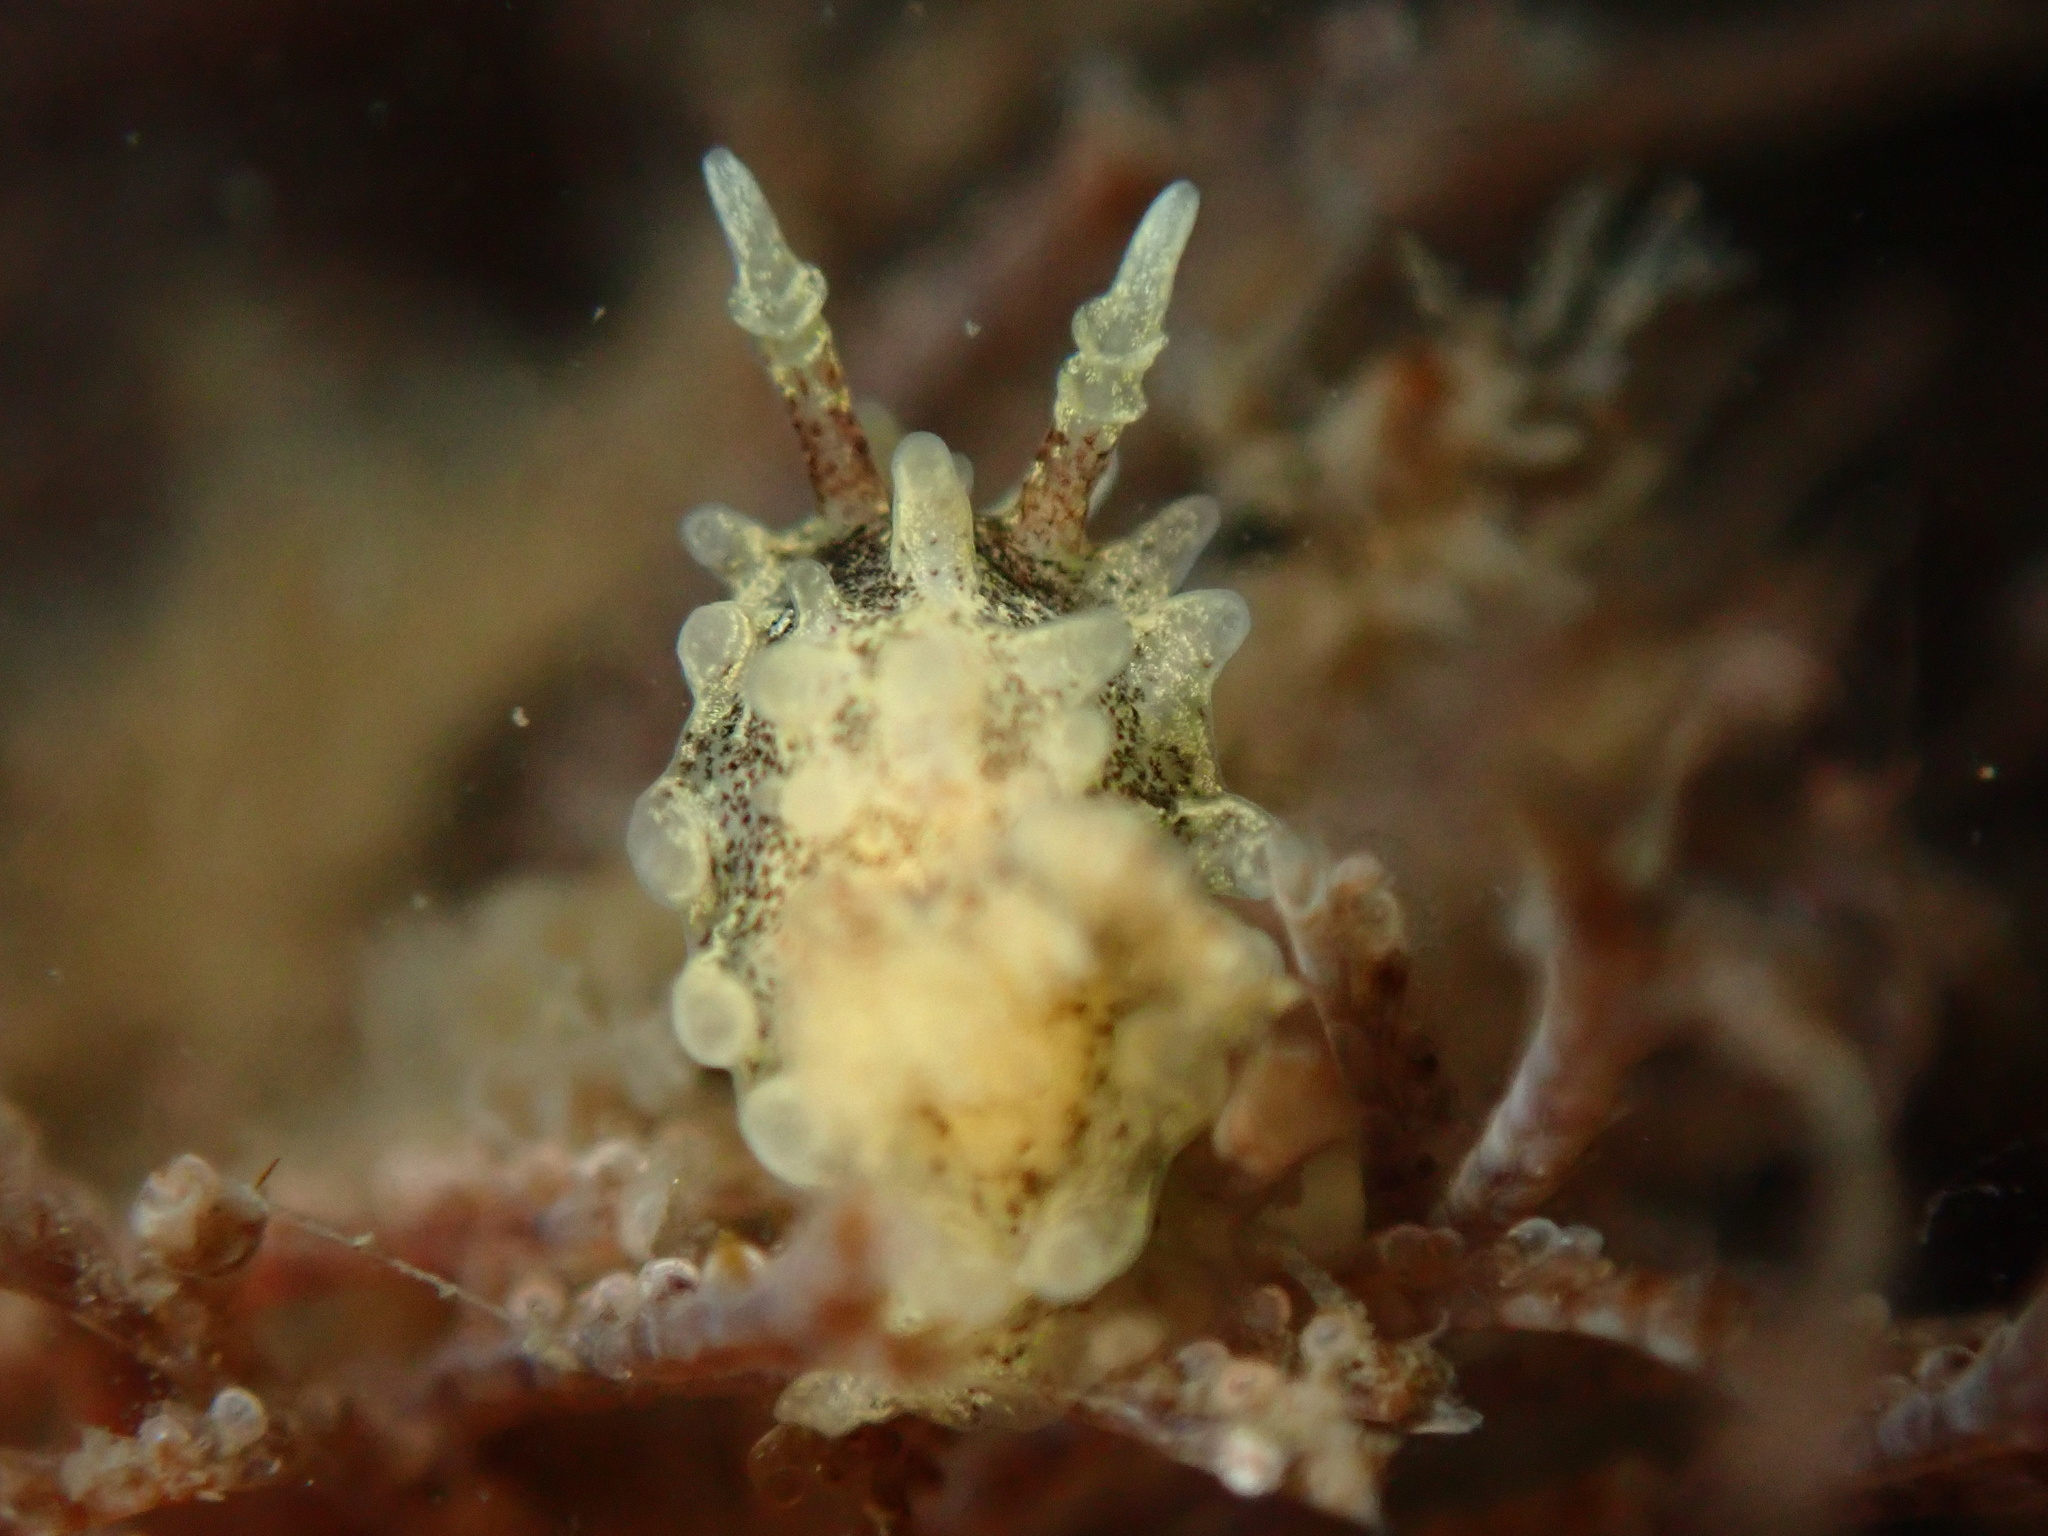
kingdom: Animalia
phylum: Mollusca
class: Gastropoda
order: Nudibranchia
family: Goniodorididae
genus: Okenia
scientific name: Okenia
